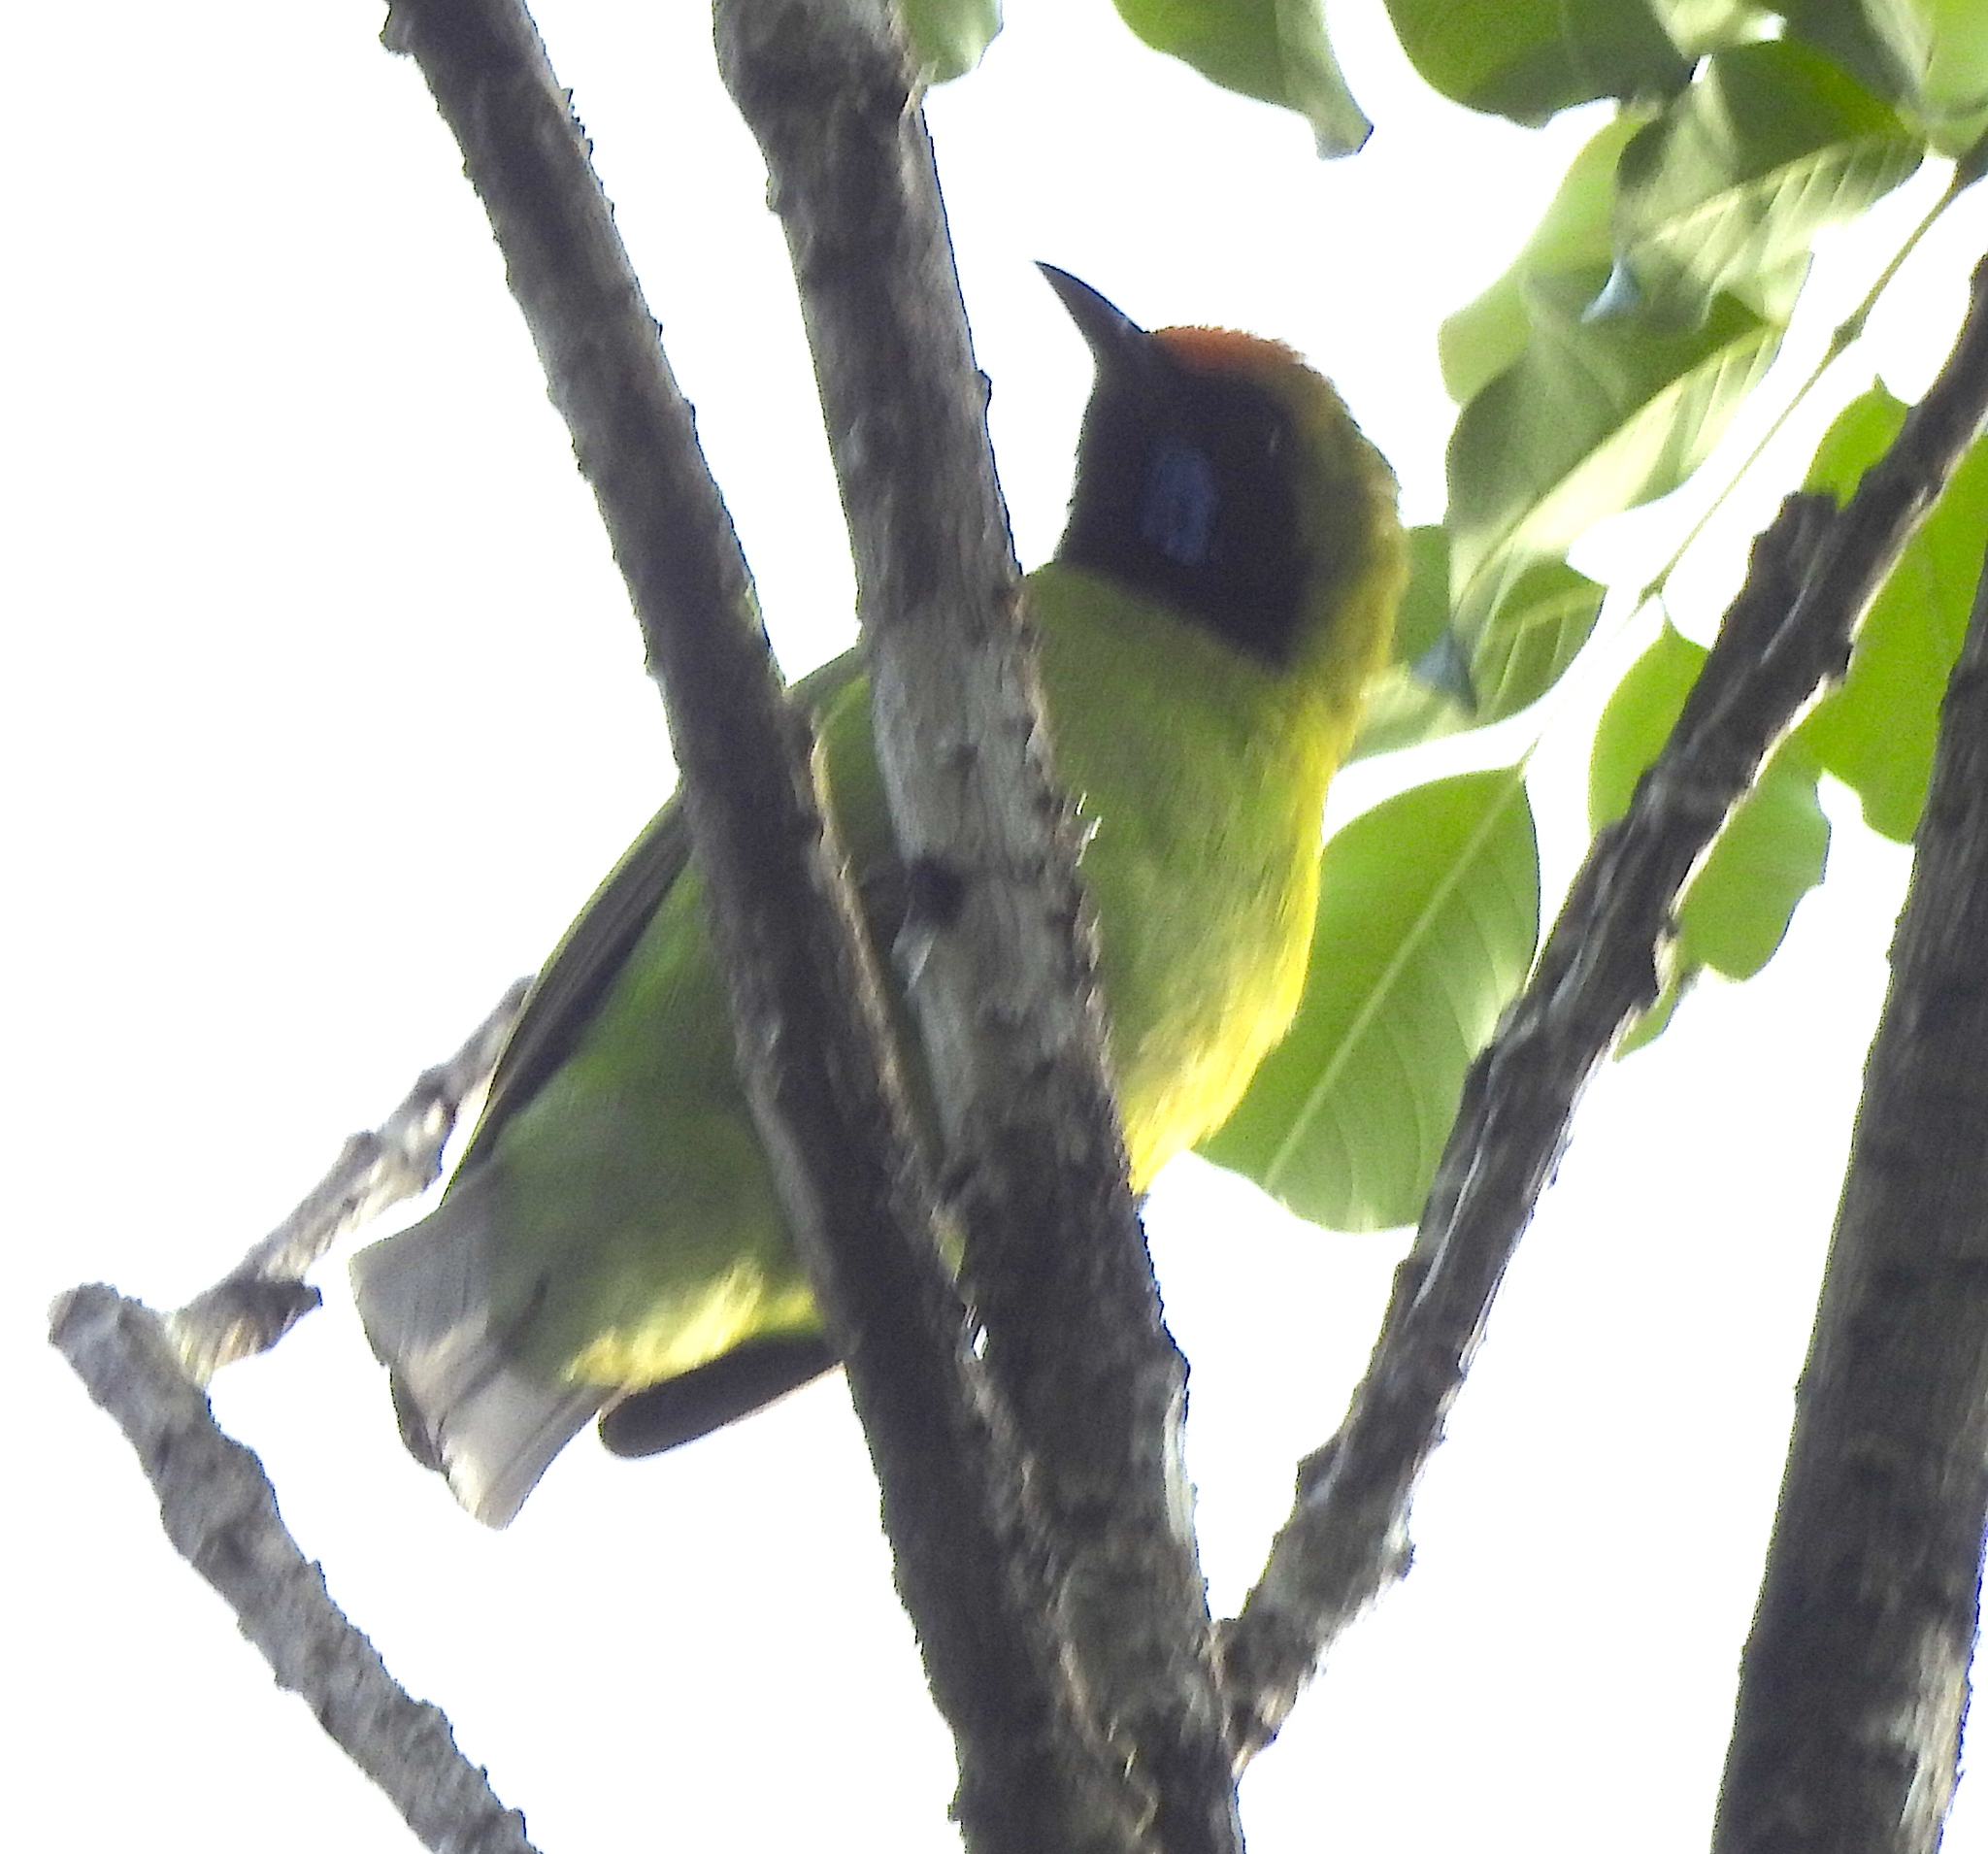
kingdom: Animalia
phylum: Chordata
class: Aves
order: Passeriformes
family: Chloropseidae
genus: Chloropsis
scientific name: Chloropsis aurifrons
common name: Golden-fronted leafbird
